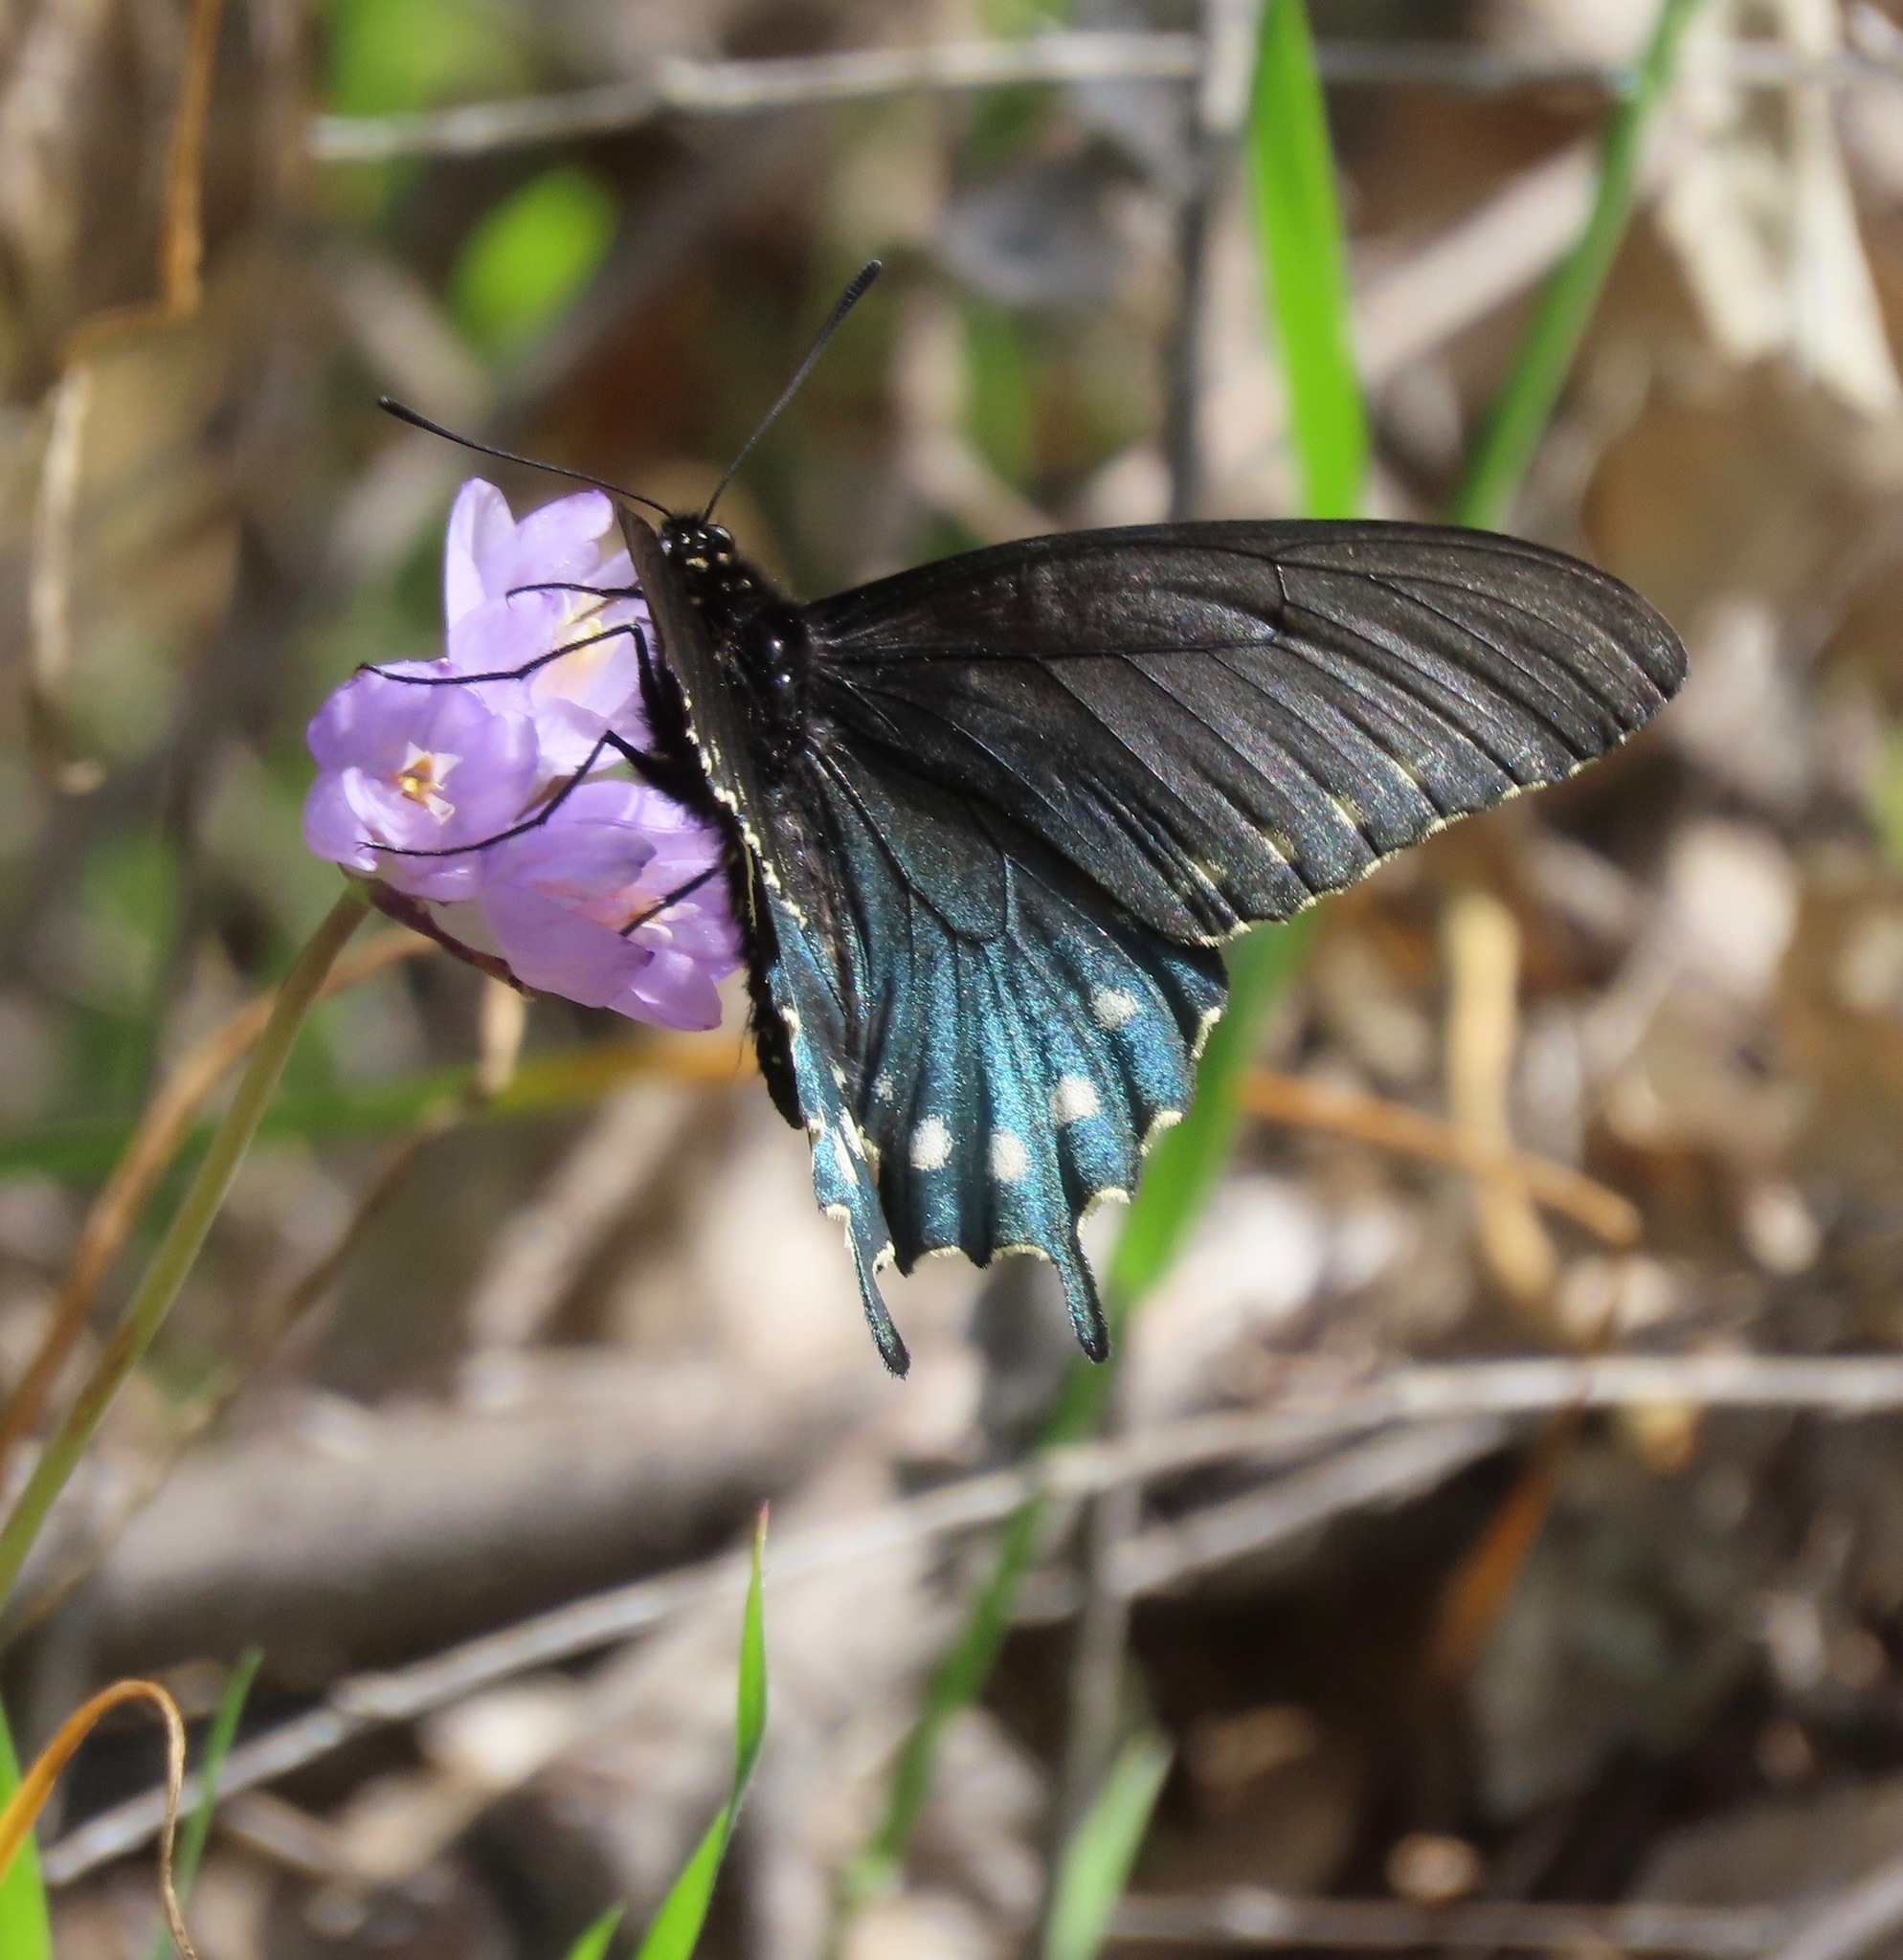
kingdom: Animalia
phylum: Arthropoda
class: Insecta
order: Lepidoptera
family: Papilionidae
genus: Battus
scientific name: Battus philenor
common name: Pipevine swallowtail
